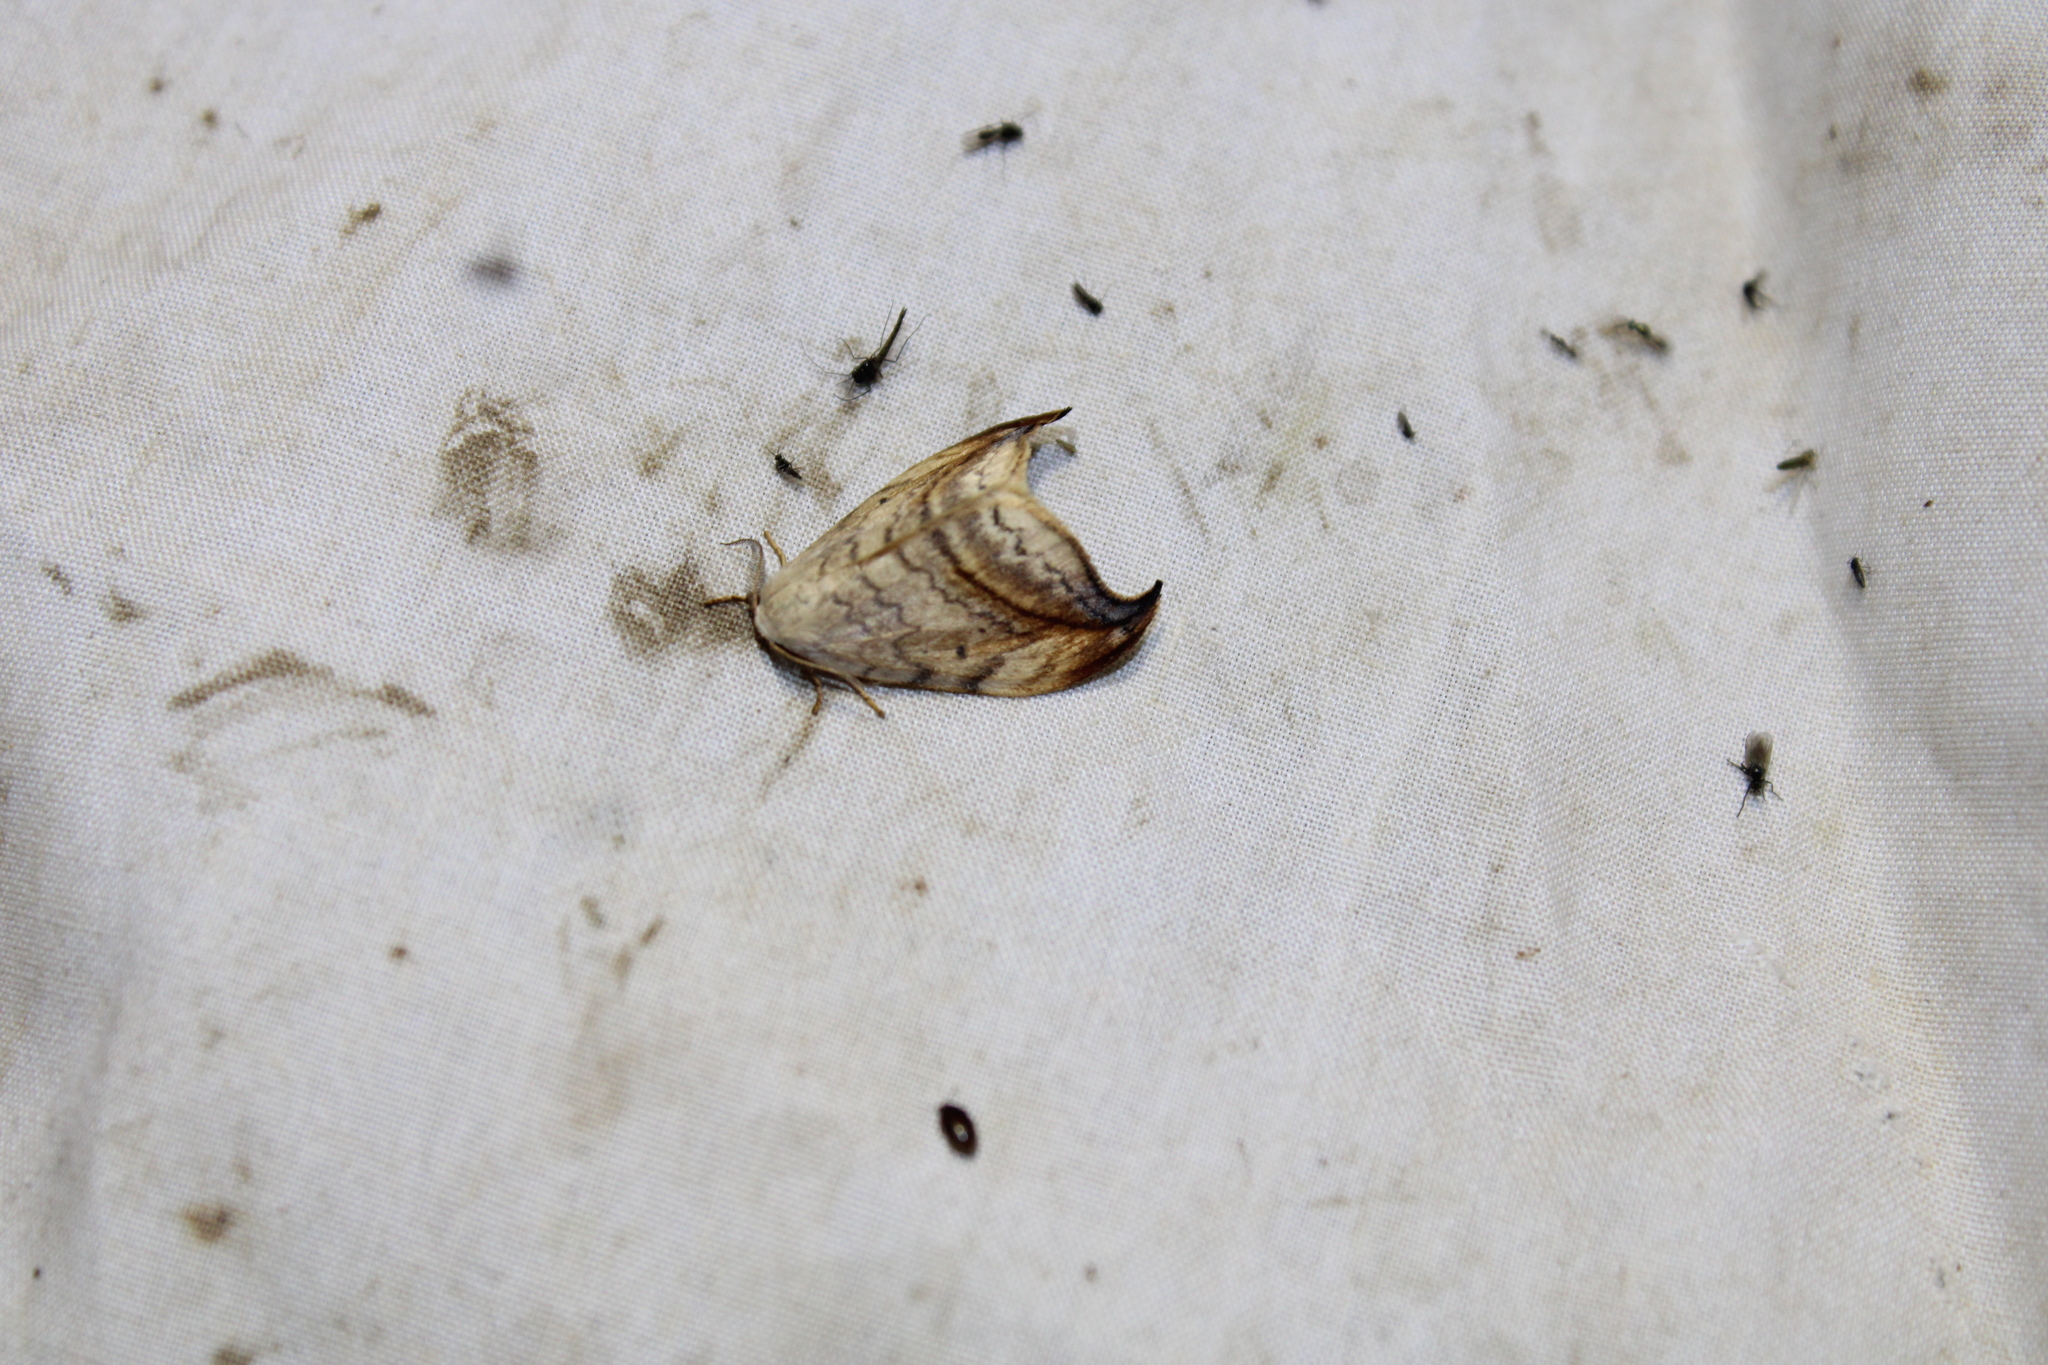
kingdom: Animalia
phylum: Arthropoda
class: Insecta
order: Lepidoptera
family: Drepanidae
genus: Drepana
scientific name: Drepana arcuata
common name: Arched hooktip moth
